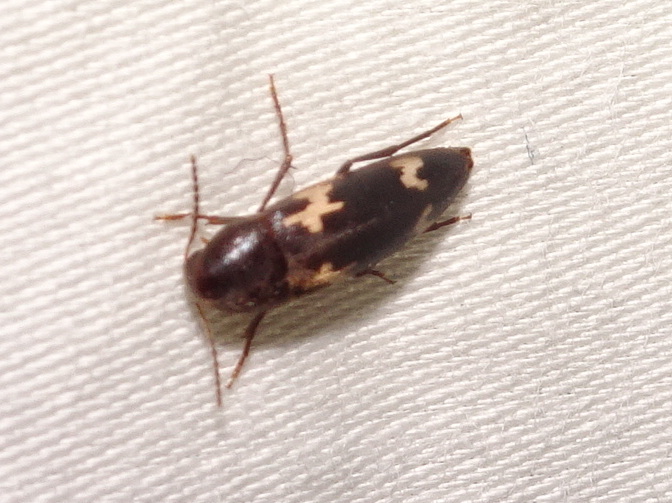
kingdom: Animalia
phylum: Arthropoda
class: Insecta
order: Coleoptera
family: Melandryidae
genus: Dircaea
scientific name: Dircaea liturata
